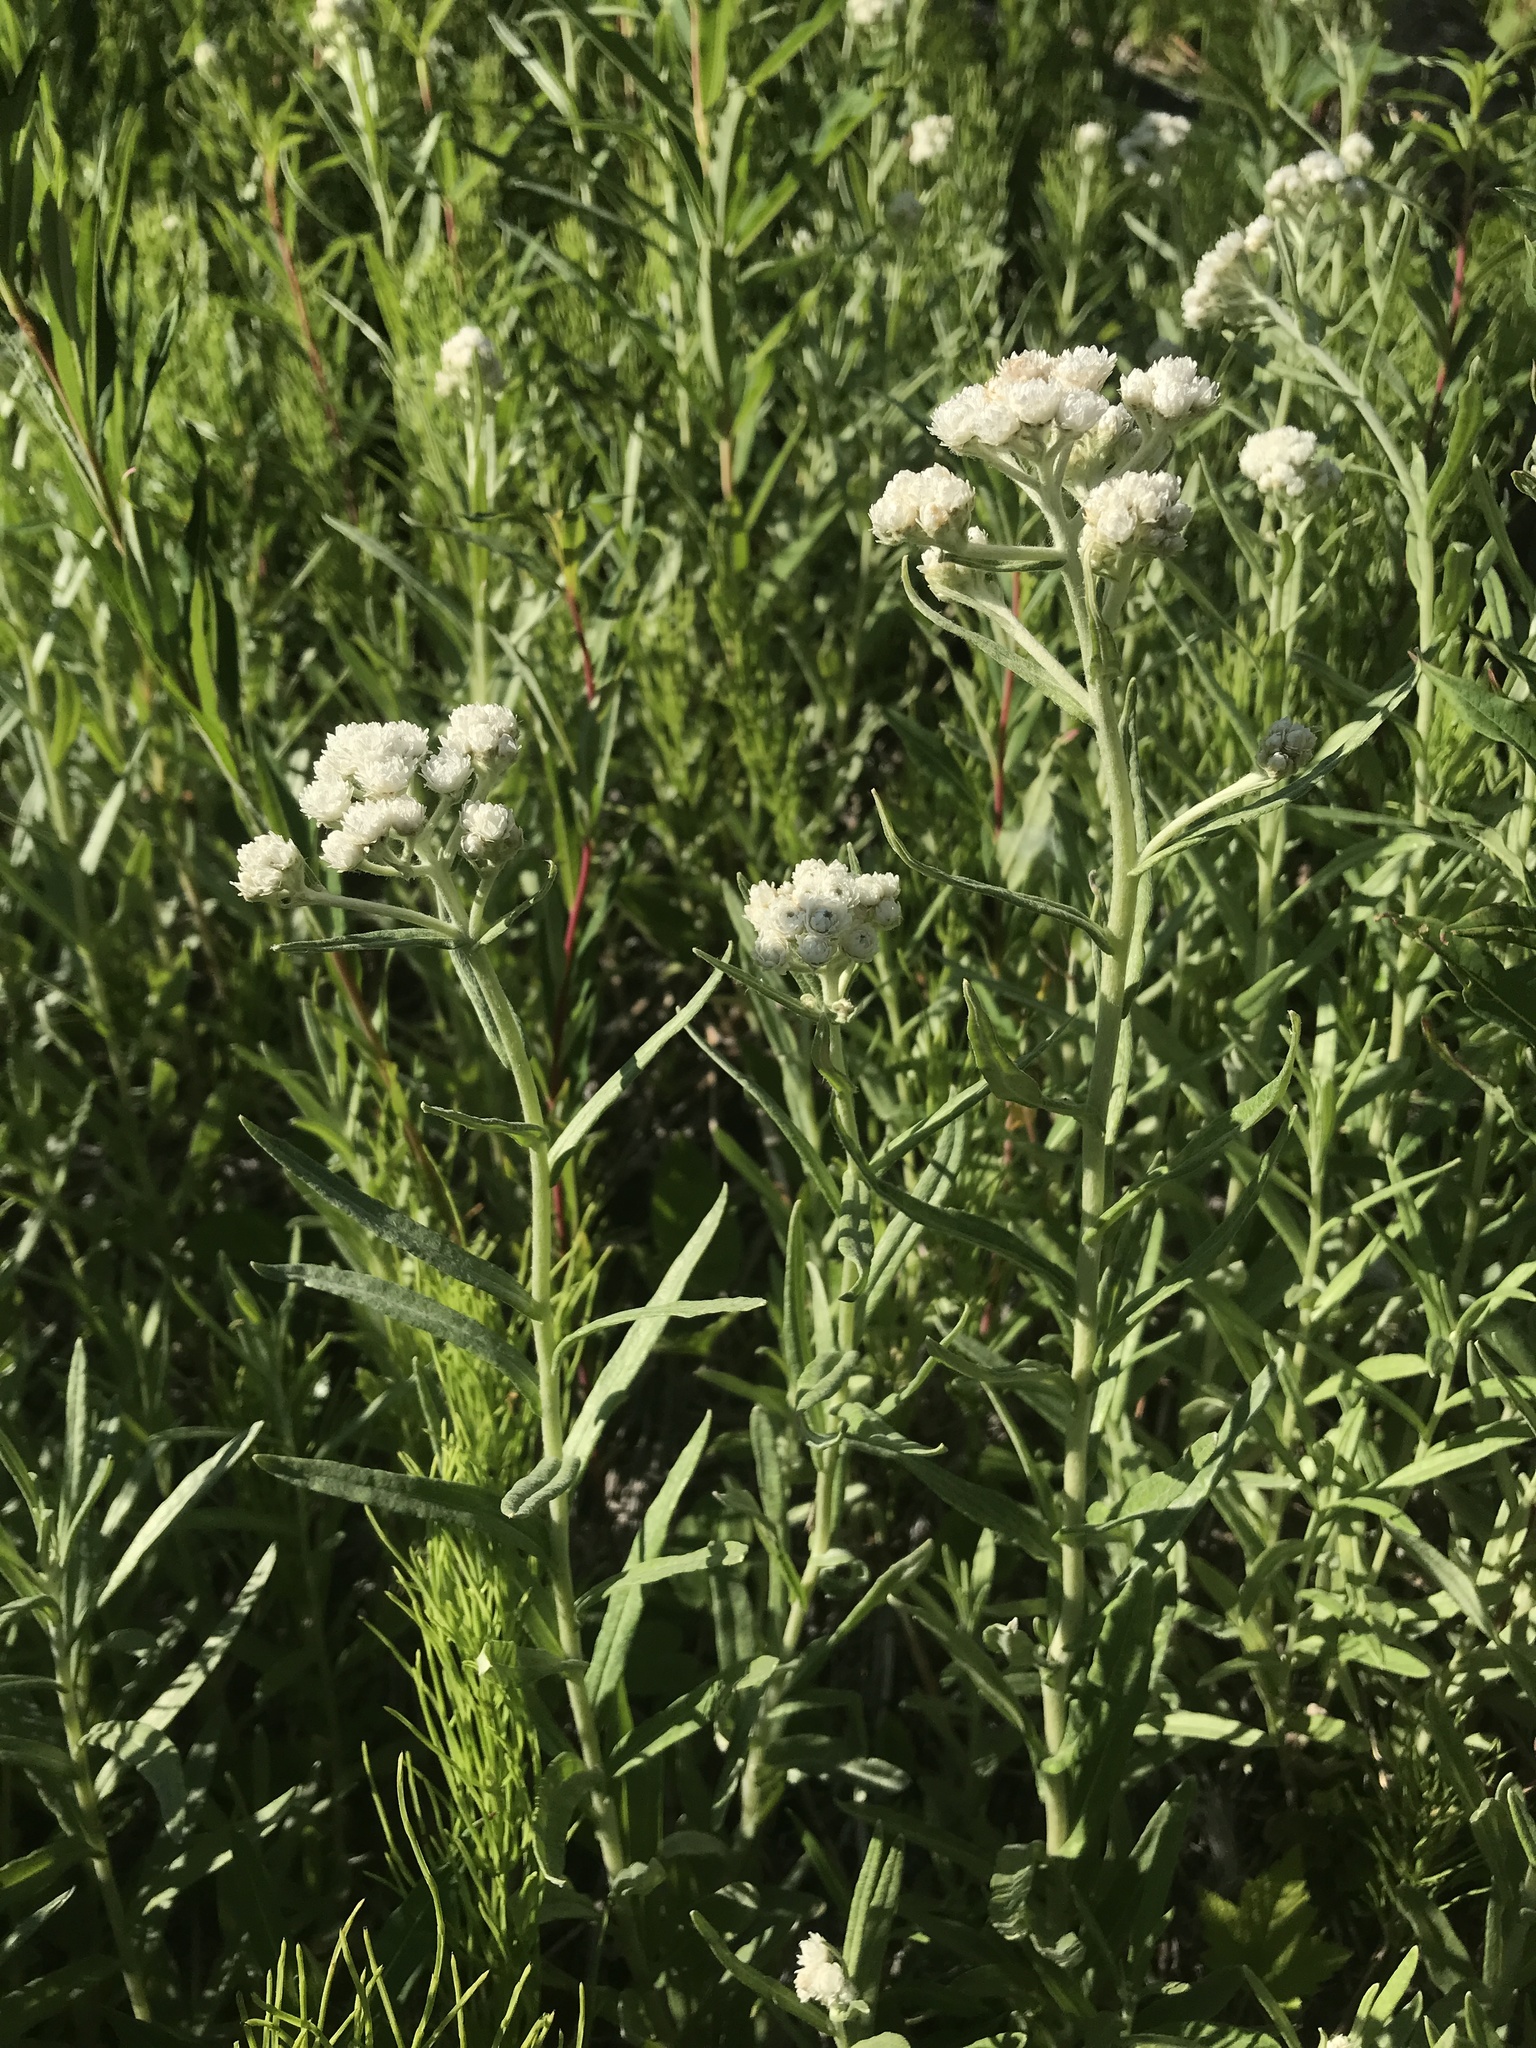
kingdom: Plantae
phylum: Tracheophyta
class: Magnoliopsida
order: Asterales
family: Asteraceae
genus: Anaphalis
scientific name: Anaphalis margaritacea
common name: Pearly everlasting
